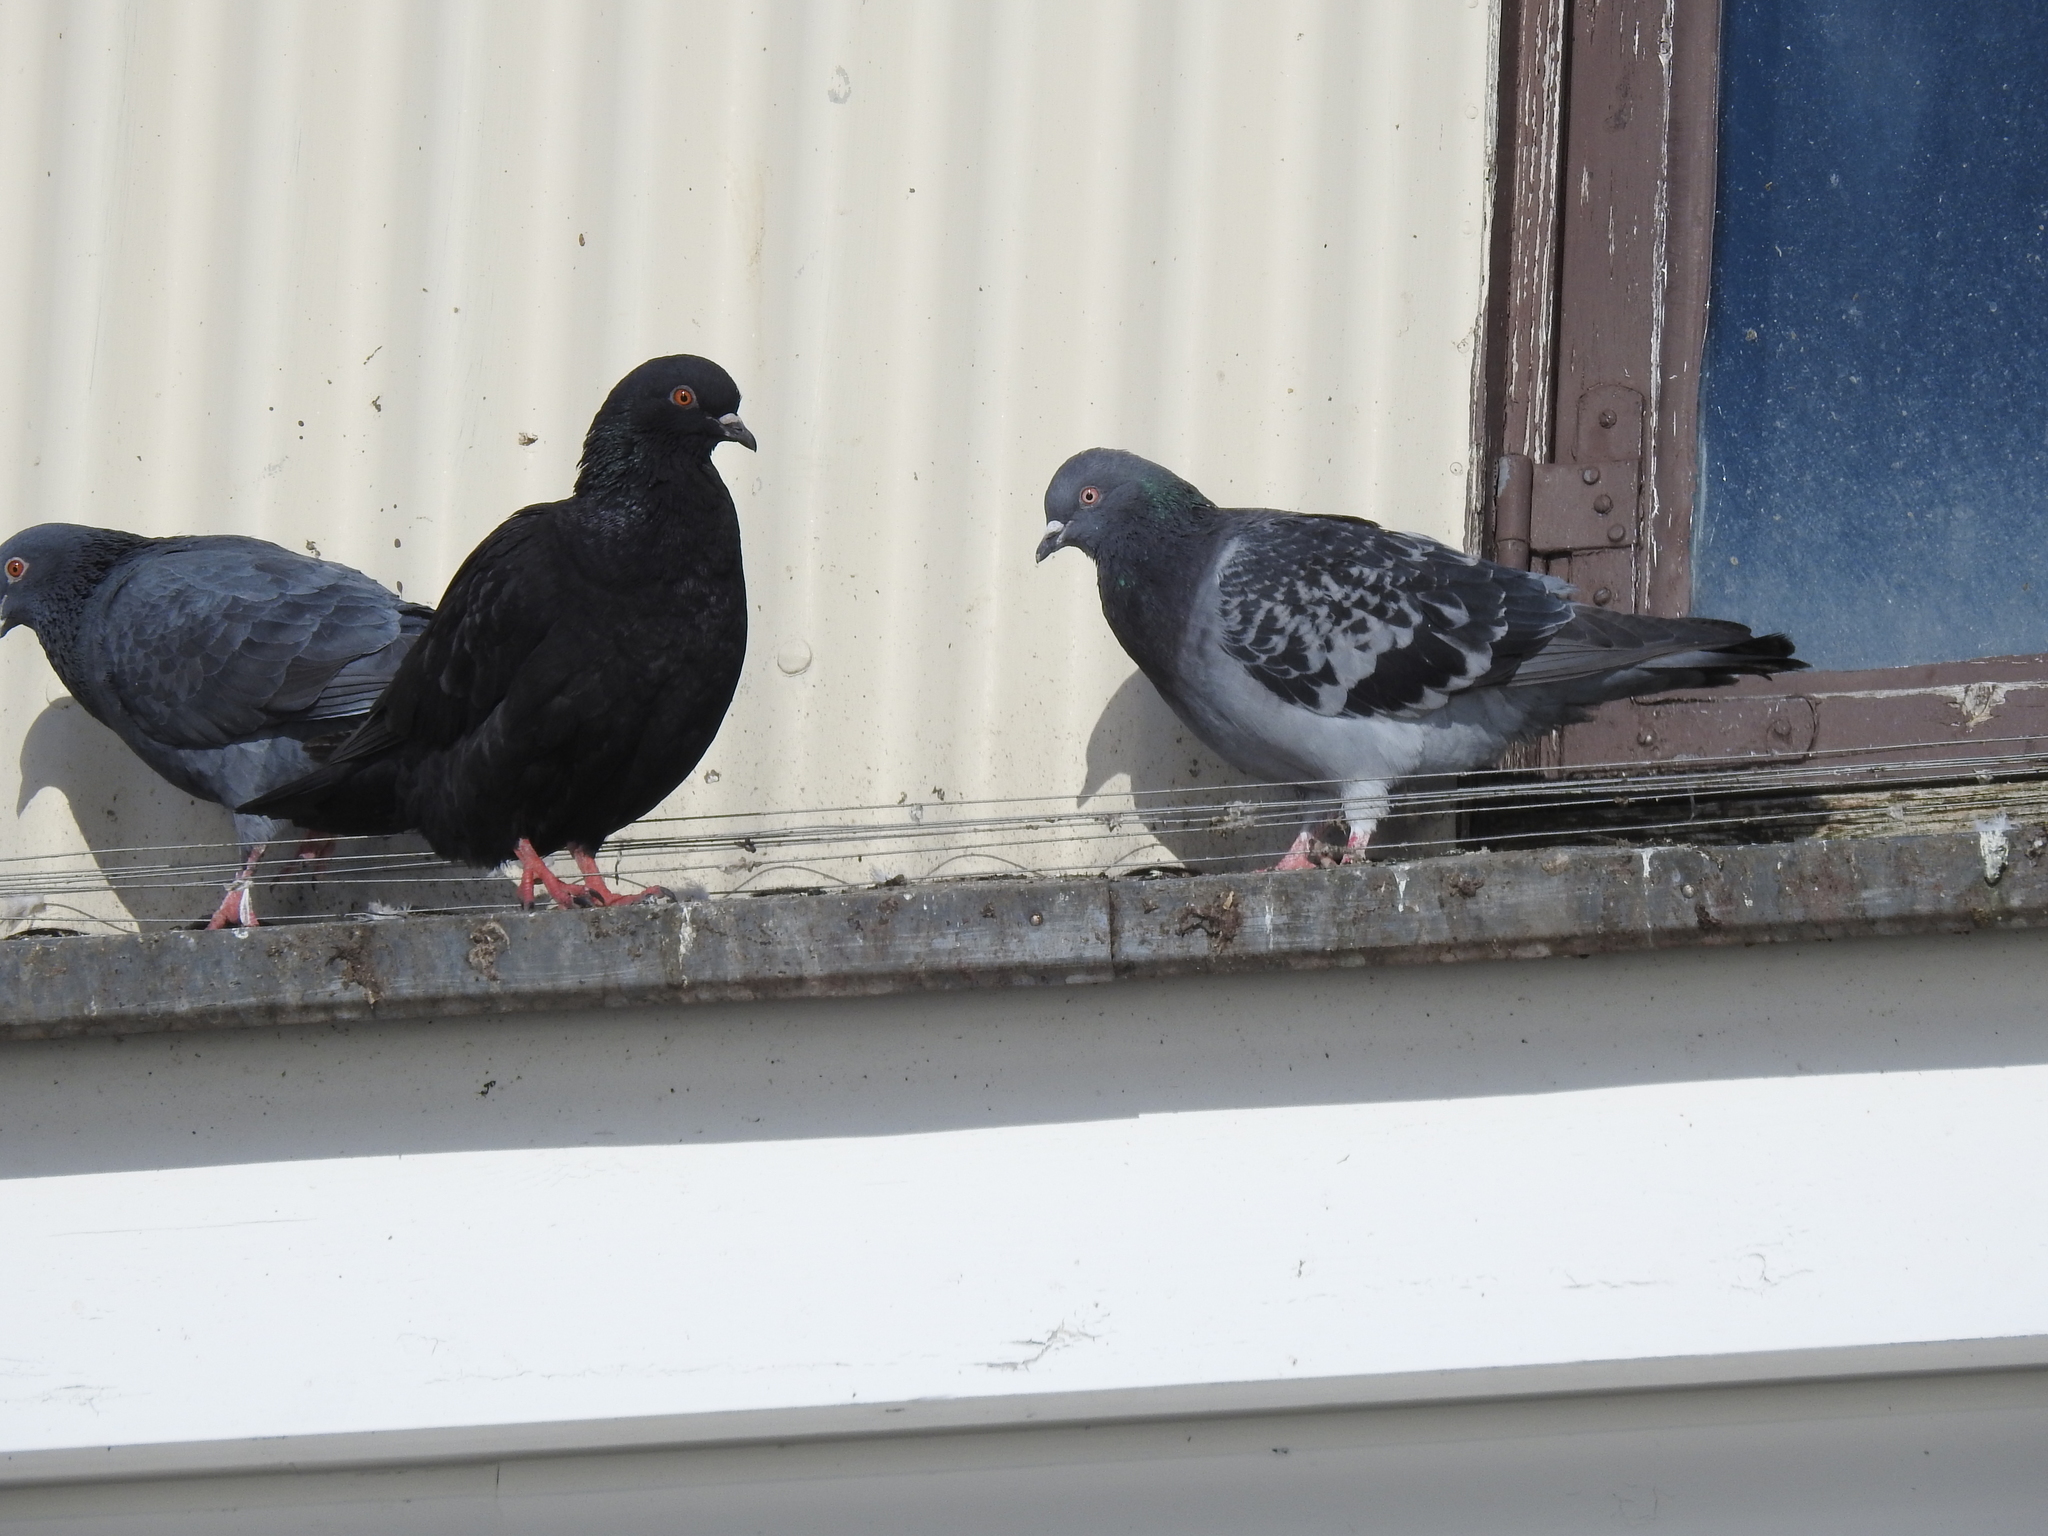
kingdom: Animalia
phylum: Chordata
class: Aves
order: Columbiformes
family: Columbidae
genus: Columba
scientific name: Columba livia
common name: Rock pigeon
